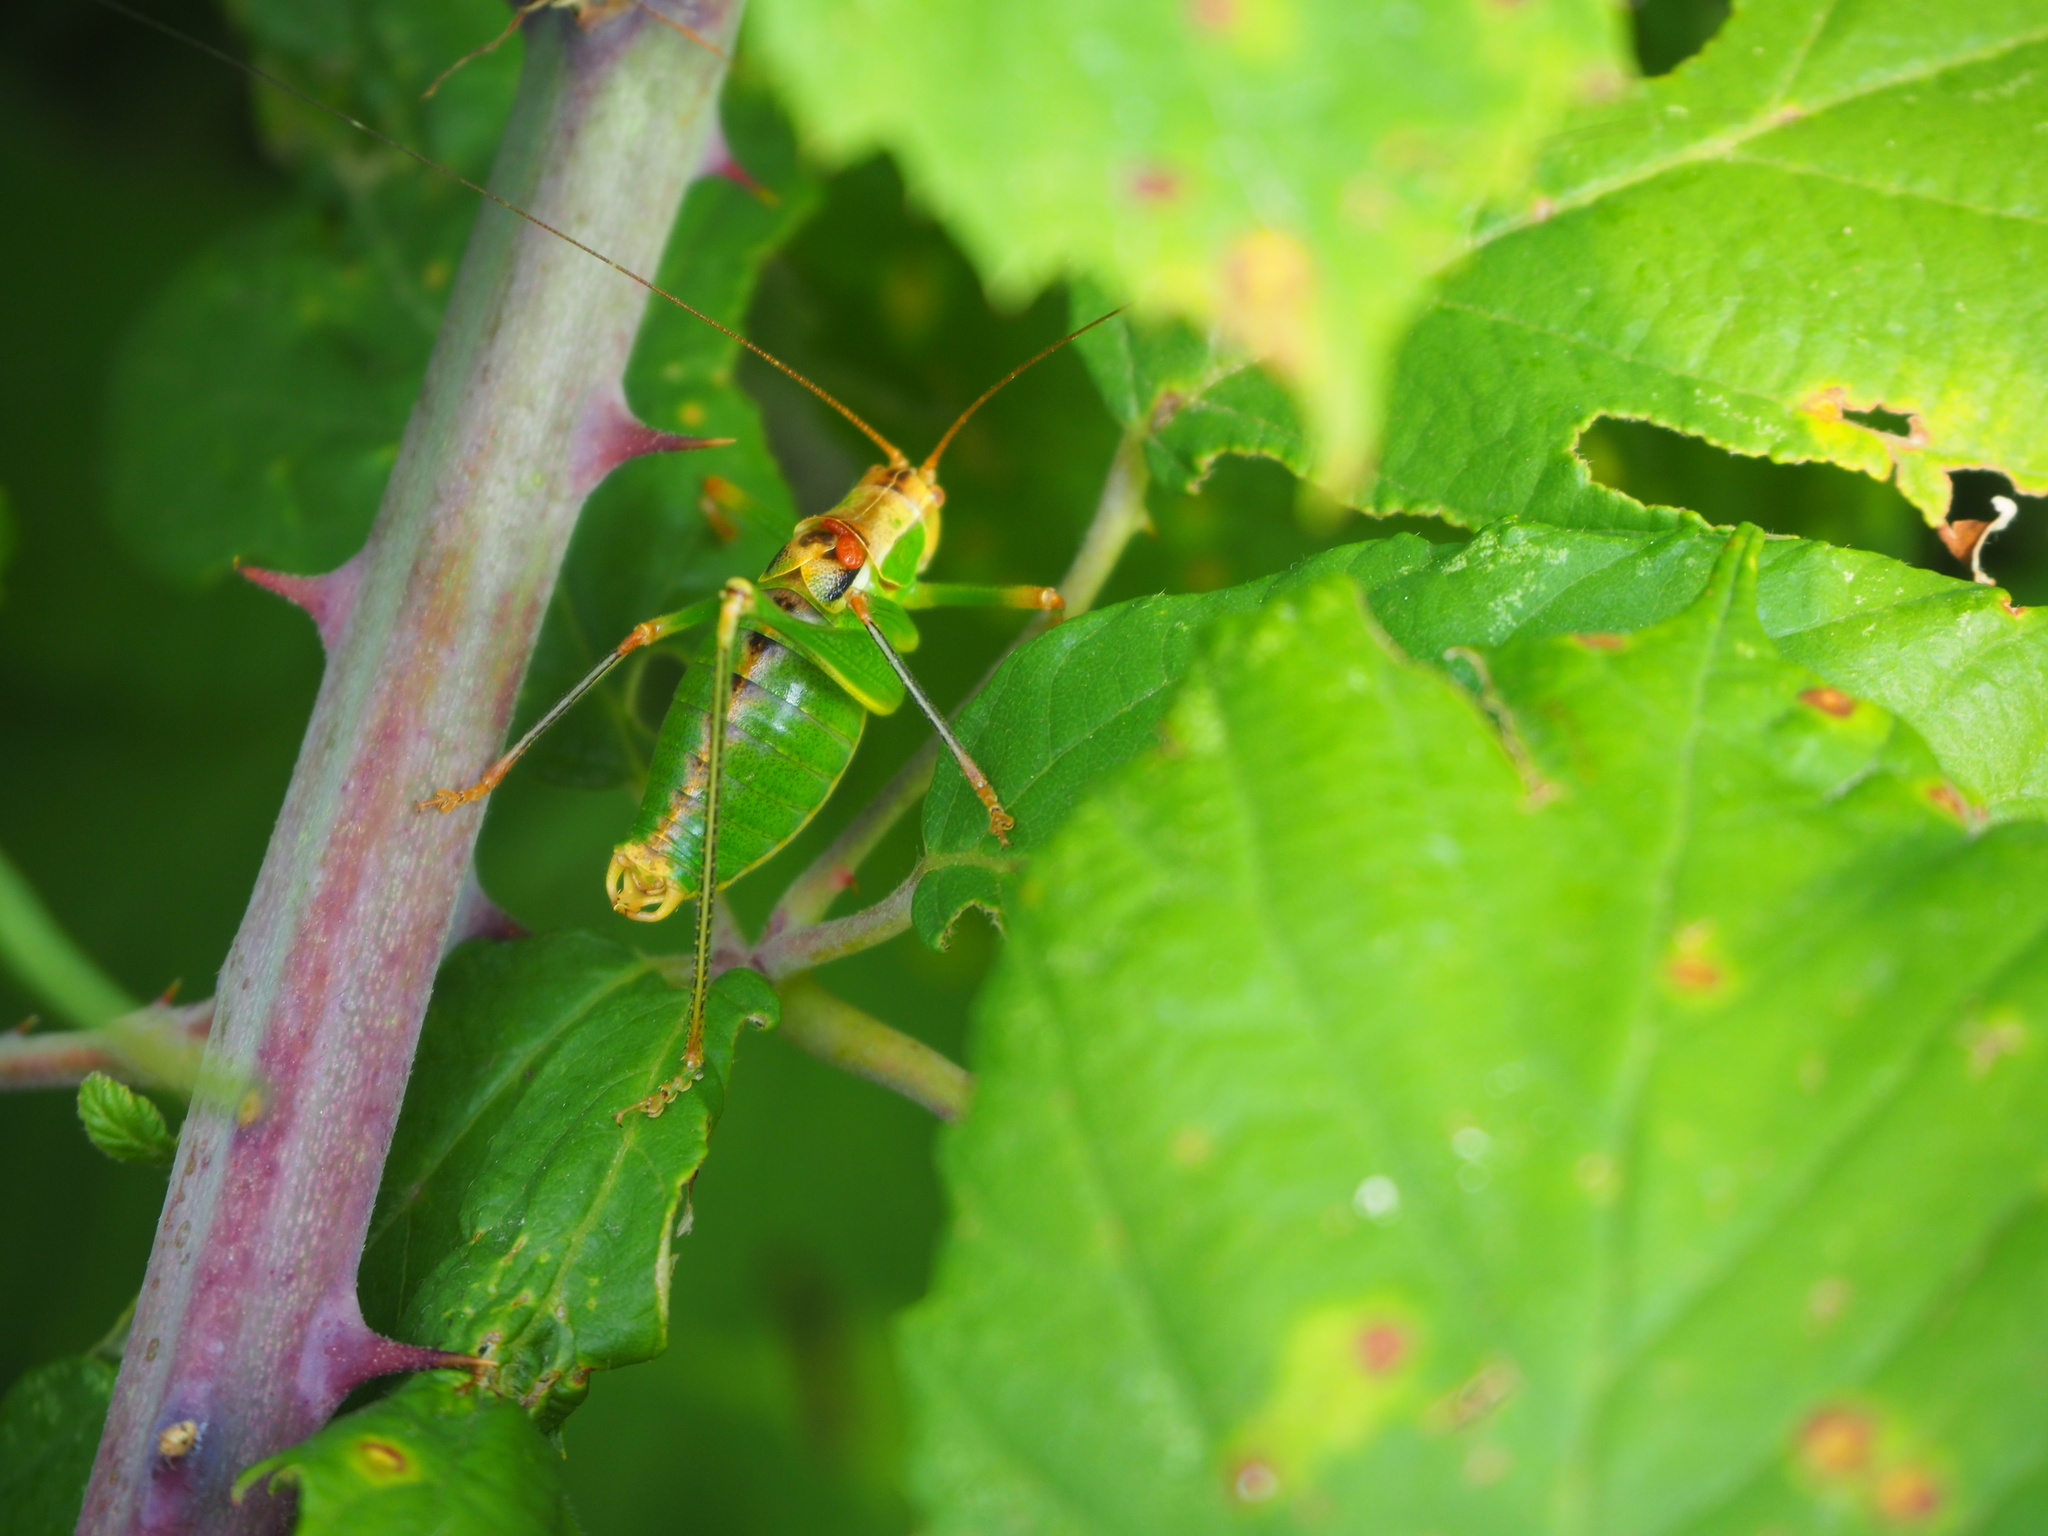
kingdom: Animalia
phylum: Arthropoda
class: Insecta
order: Orthoptera
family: Tettigoniidae
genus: Metaplastes
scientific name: Metaplastes pulchripennis
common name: Italian ornate bush-cricket
